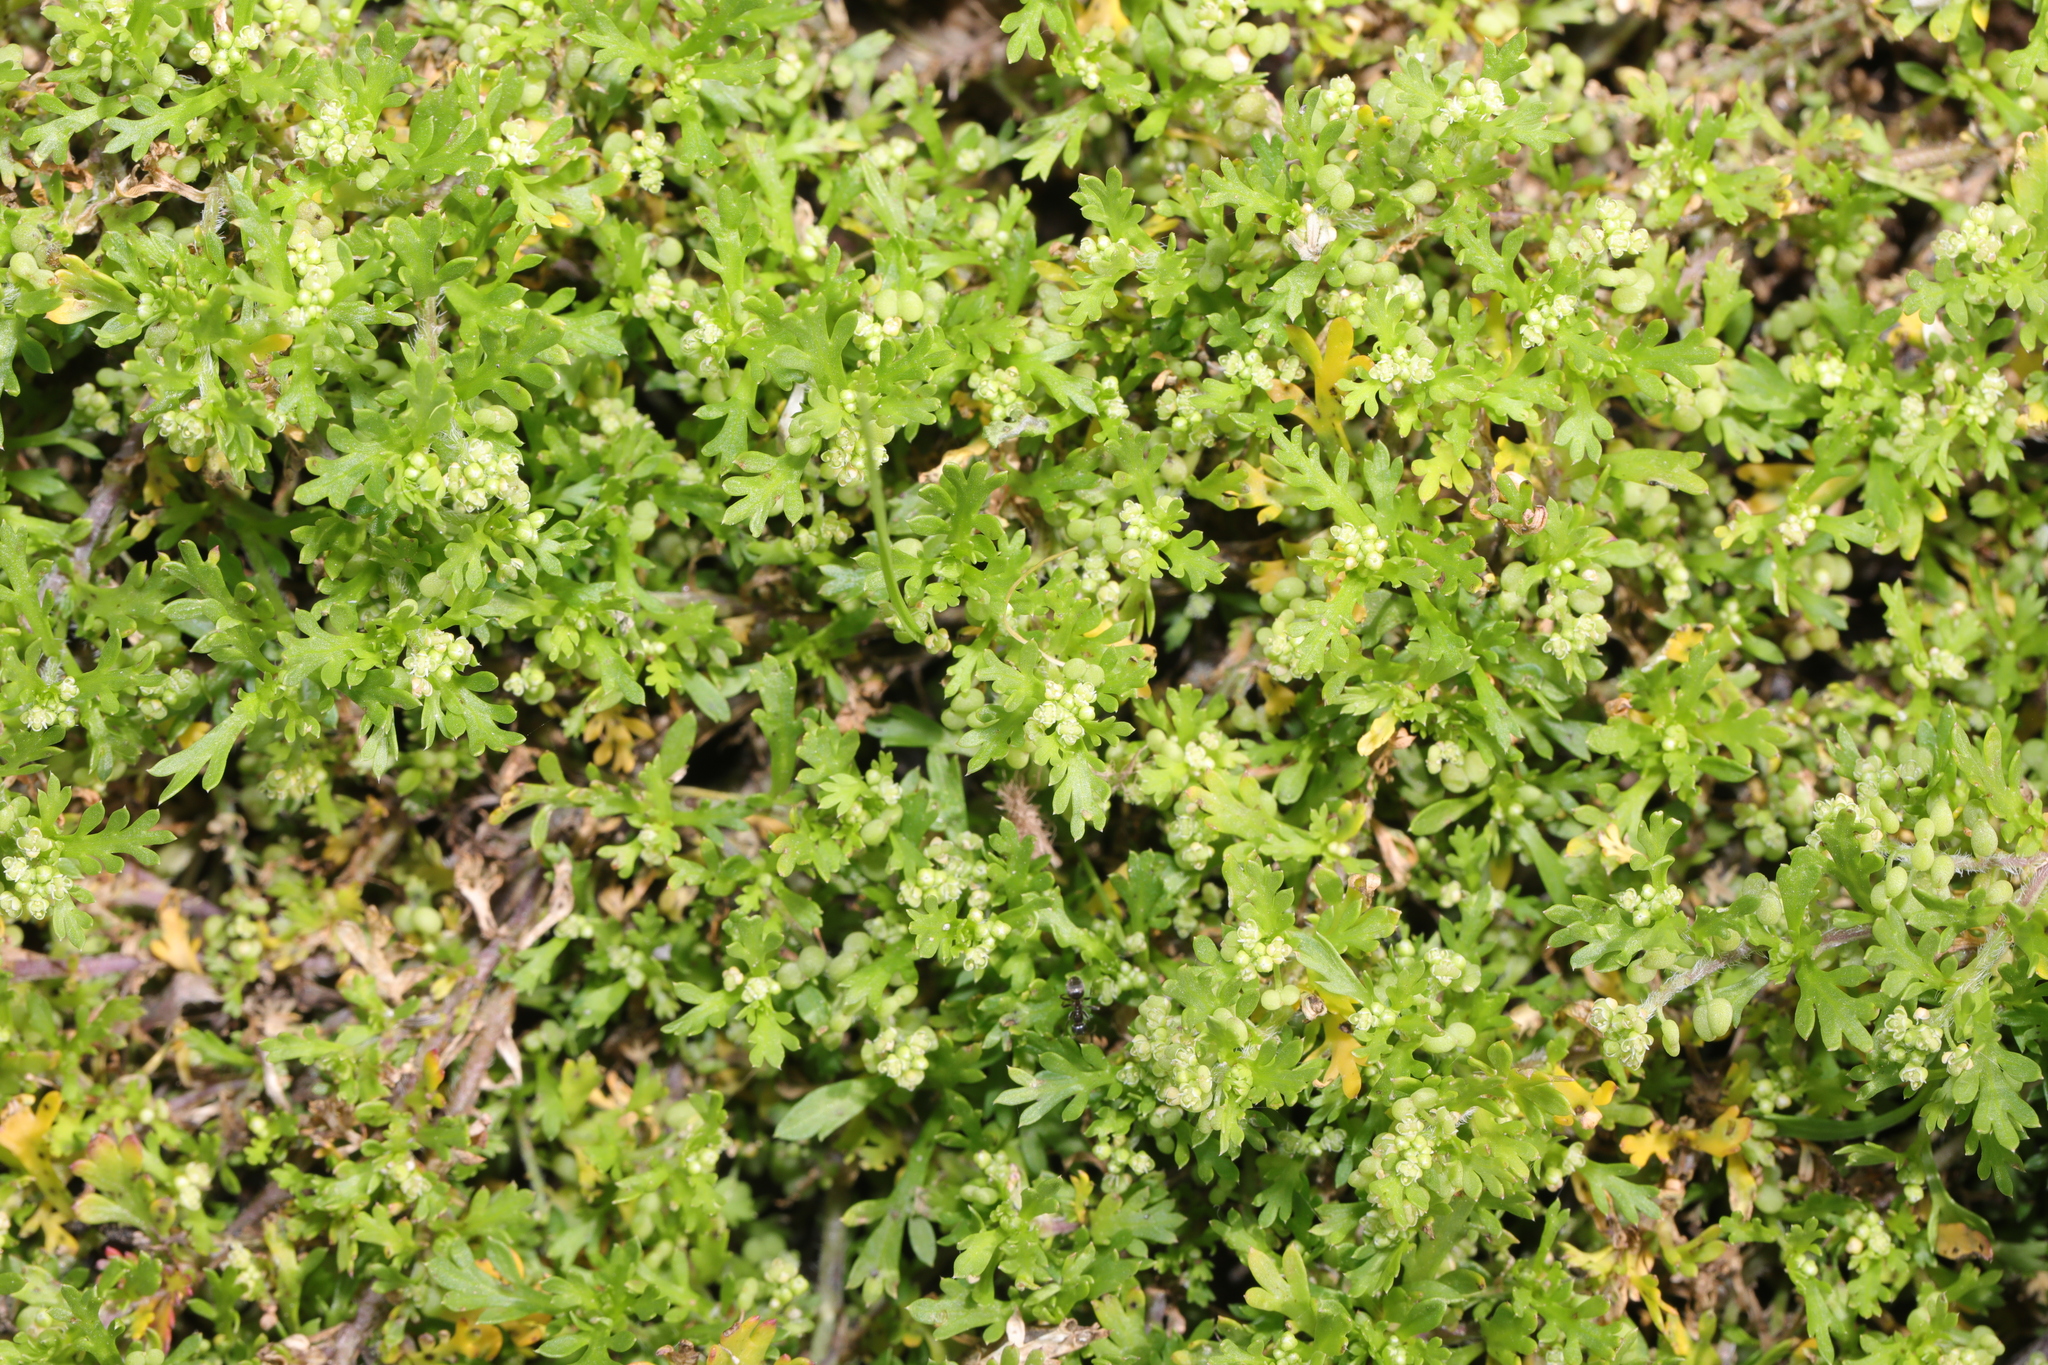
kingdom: Plantae
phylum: Tracheophyta
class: Magnoliopsida
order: Brassicales
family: Brassicaceae
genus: Lepidium
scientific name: Lepidium didymum
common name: Lesser swinecress
